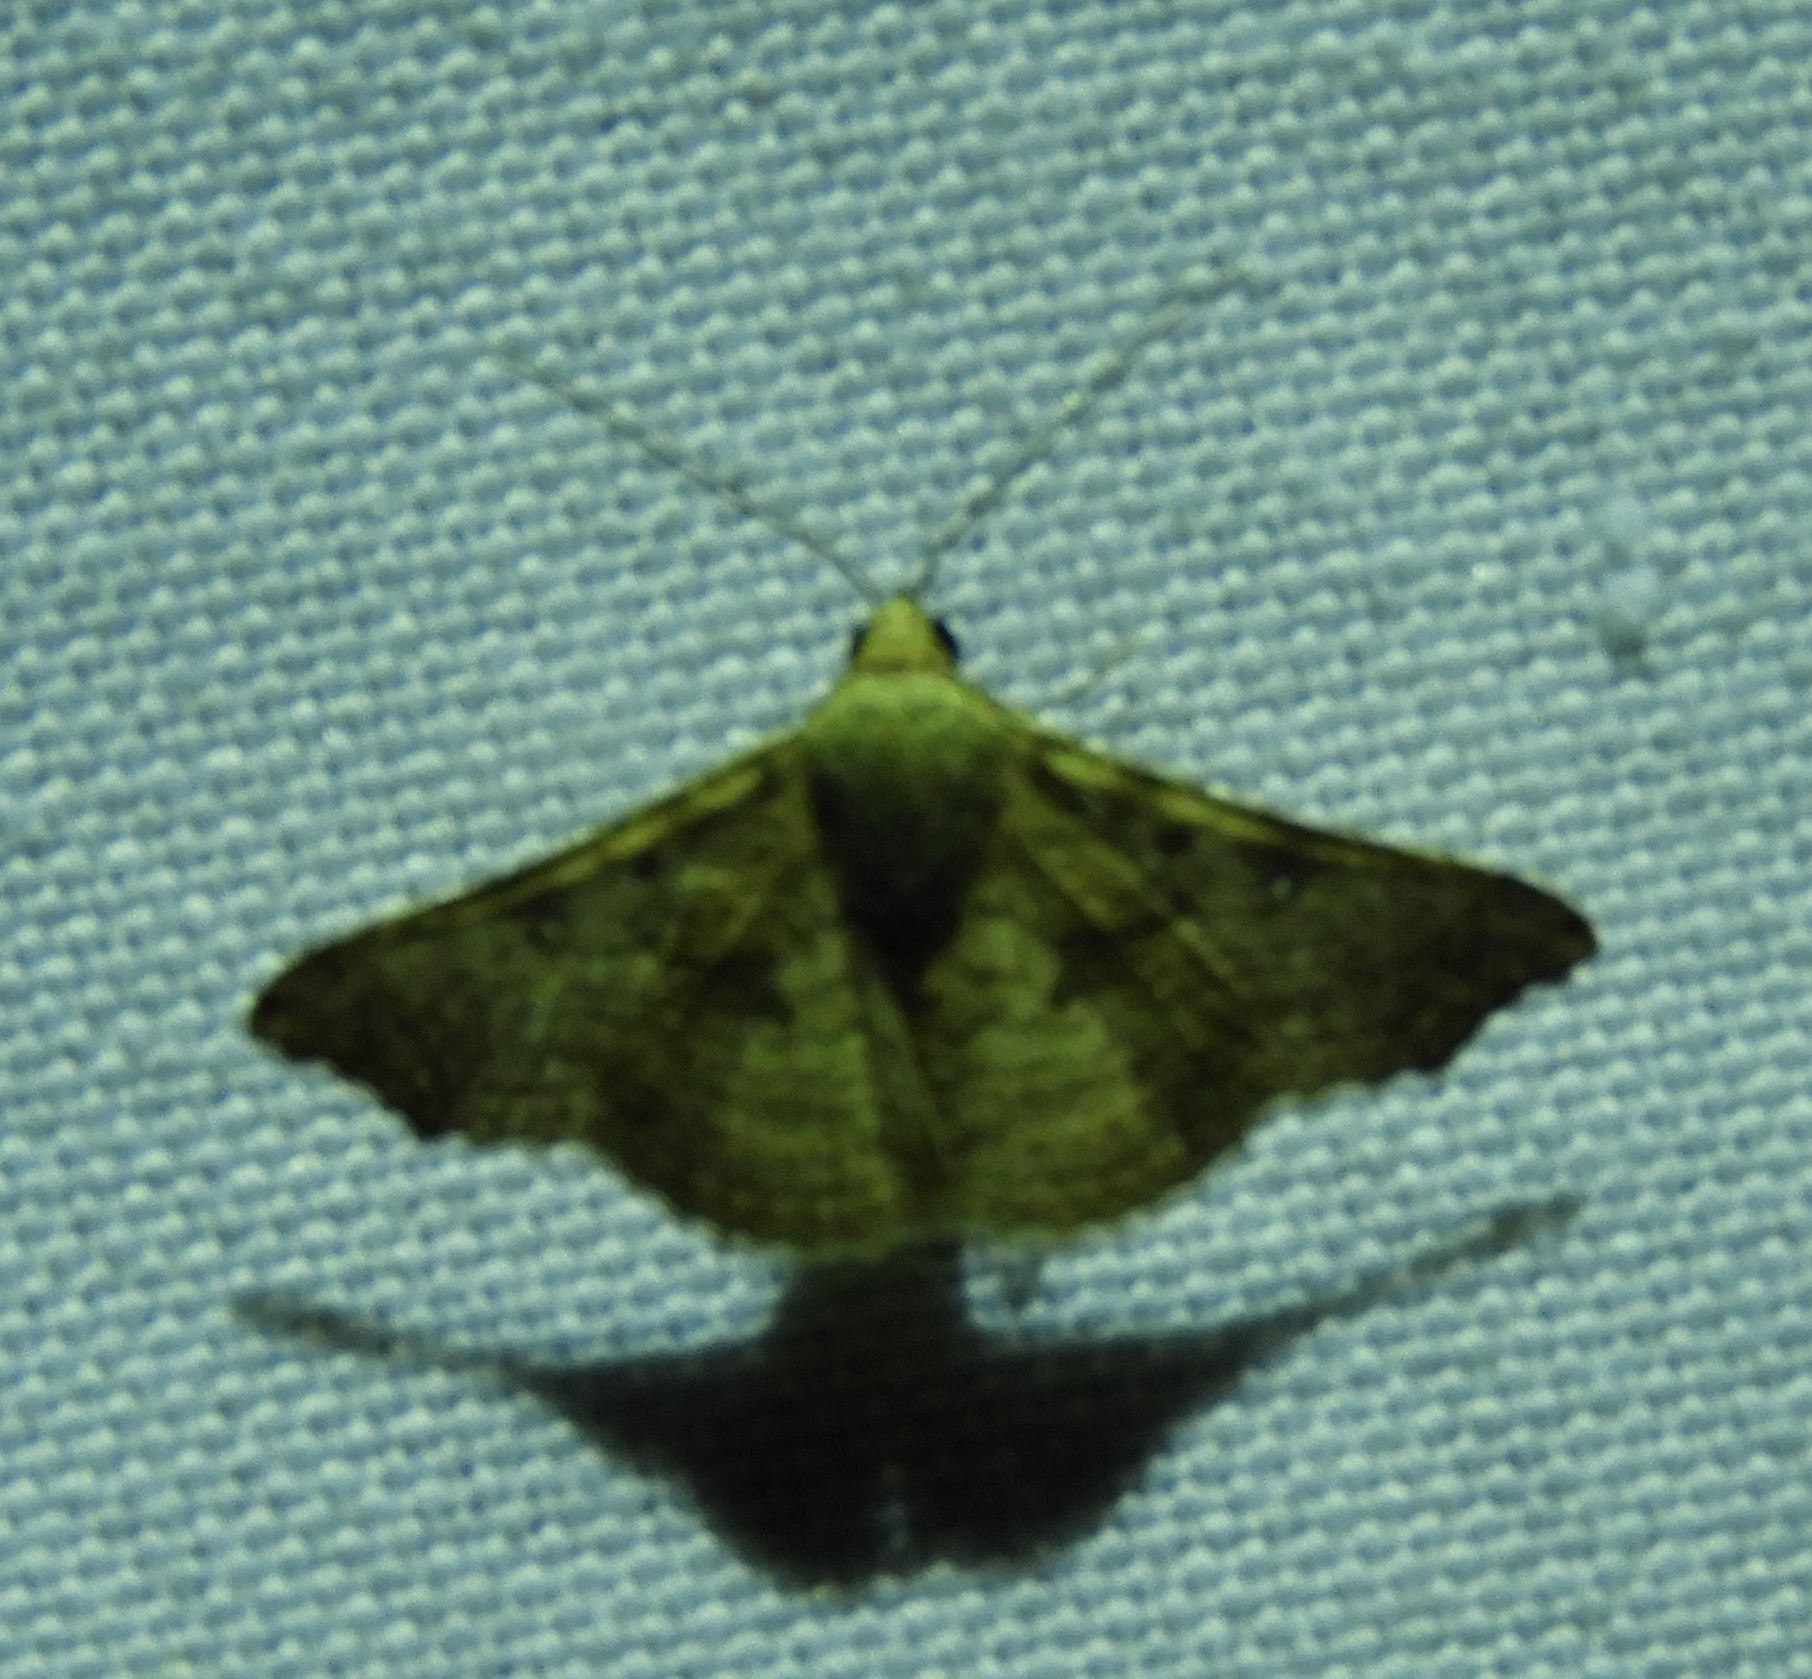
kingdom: Animalia
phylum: Arthropoda
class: Insecta
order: Lepidoptera
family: Erebidae
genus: Tyrissa
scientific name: Tyrissa multilinea
